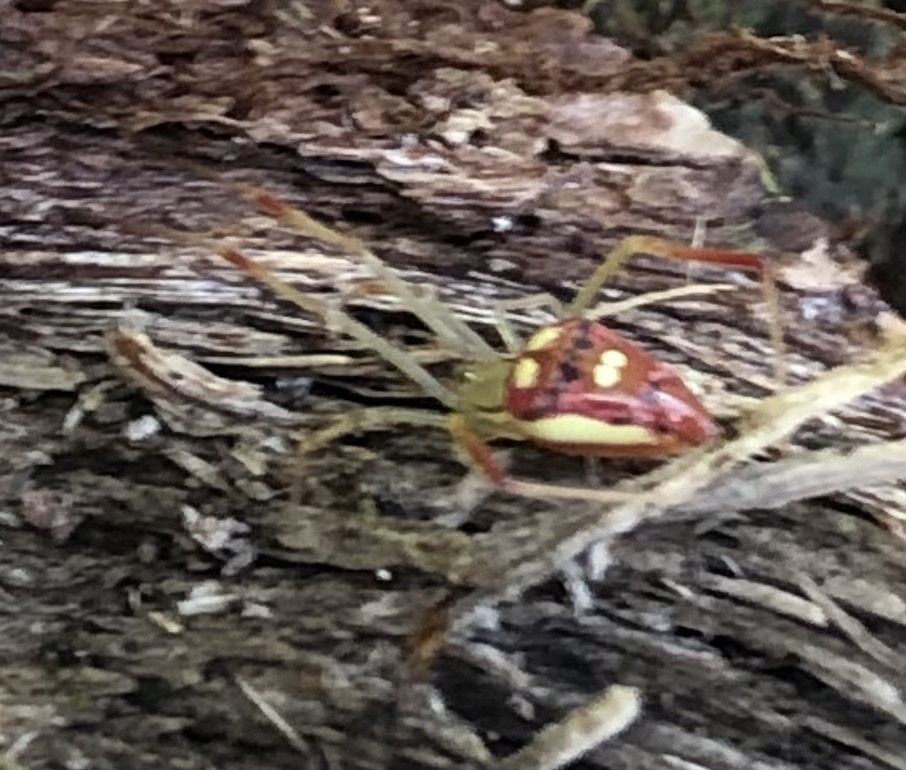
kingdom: Animalia
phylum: Arthropoda
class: Arachnida
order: Araneae
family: Theridiidae
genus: Spintharus
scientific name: Spintharus flavidus
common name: Cobweb spiders
